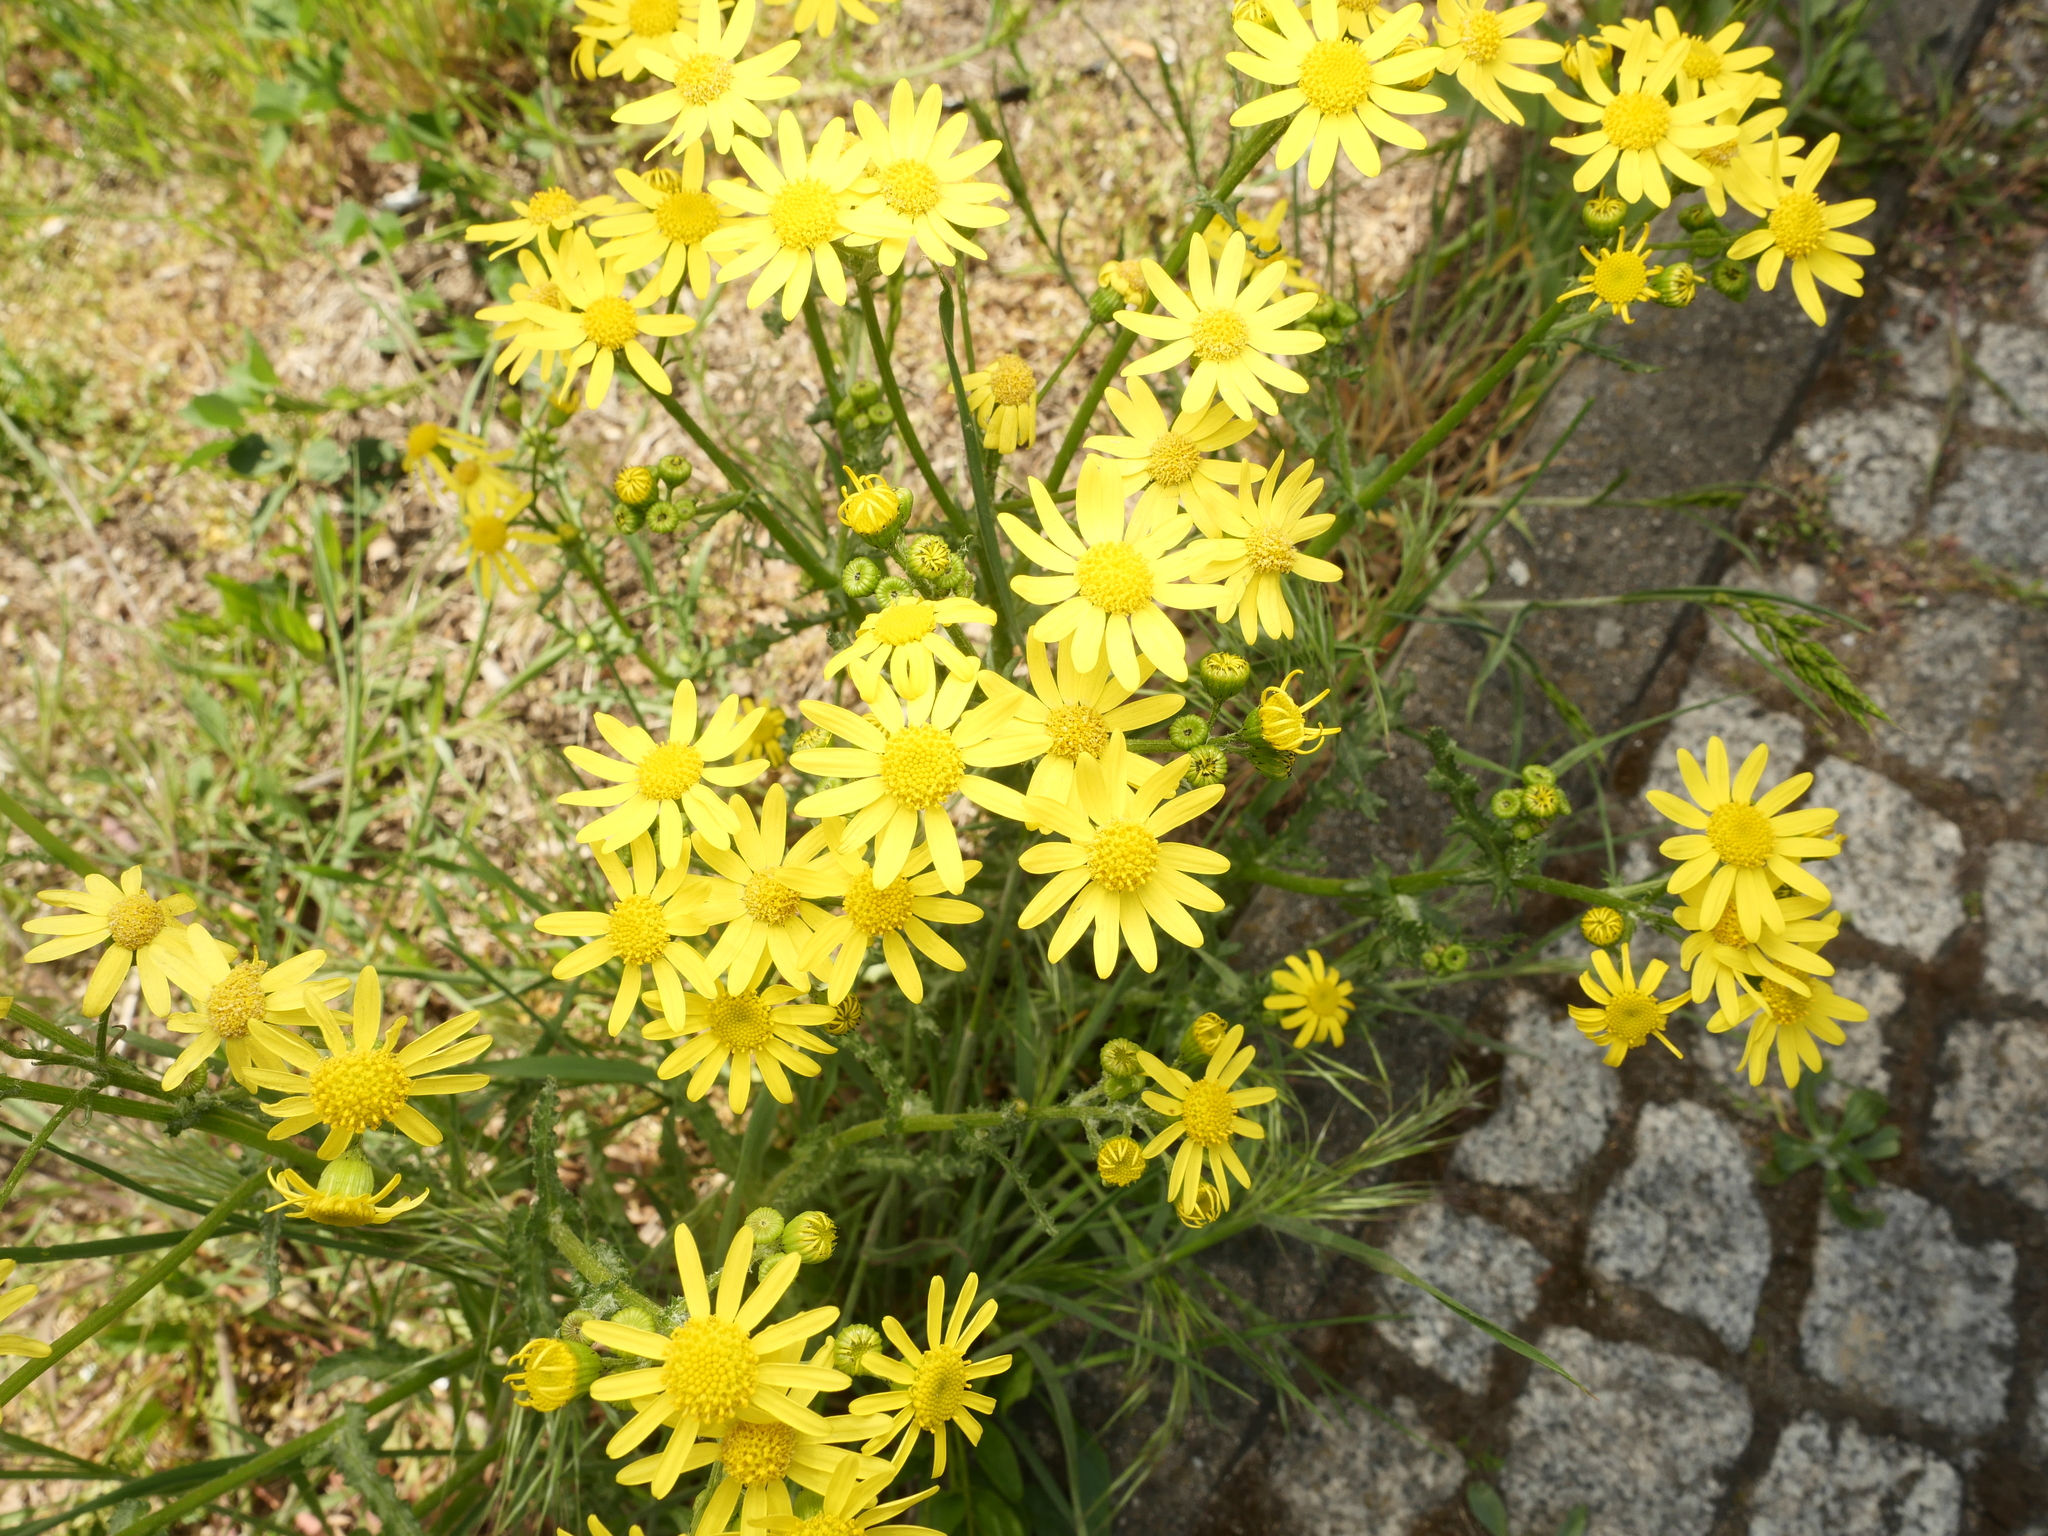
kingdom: Plantae
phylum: Tracheophyta
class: Magnoliopsida
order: Asterales
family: Asteraceae
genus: Senecio
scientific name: Senecio vernalis
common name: Eastern groundsel
